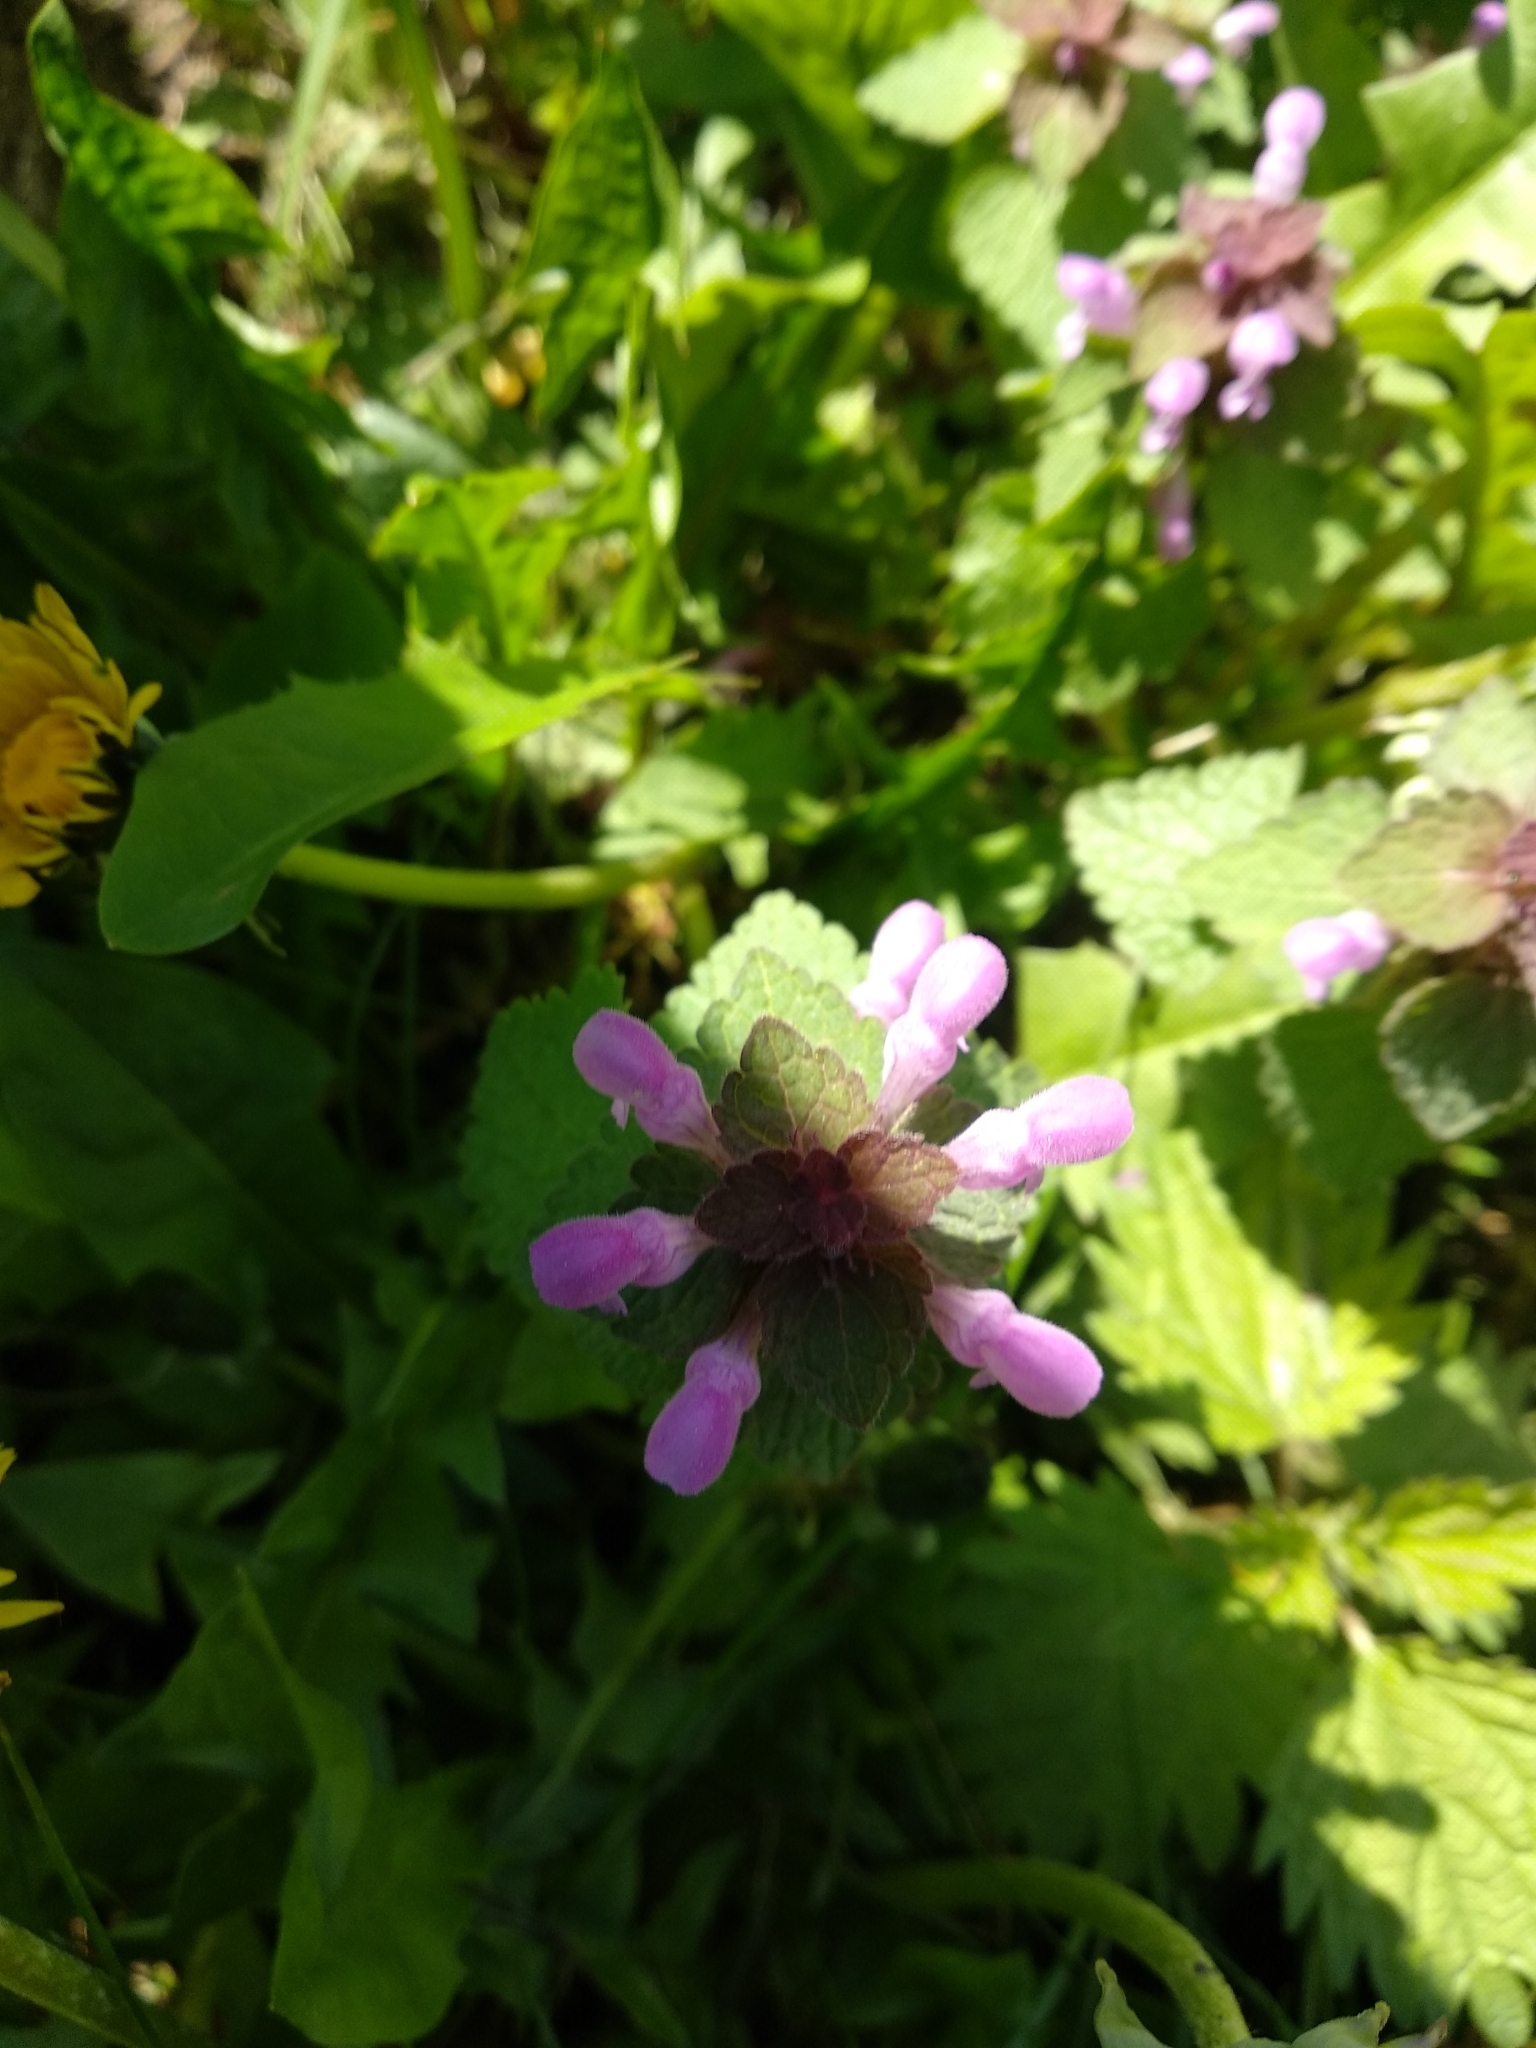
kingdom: Plantae
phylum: Tracheophyta
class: Magnoliopsida
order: Lamiales
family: Lamiaceae
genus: Lamium
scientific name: Lamium purpureum
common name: Red dead-nettle
